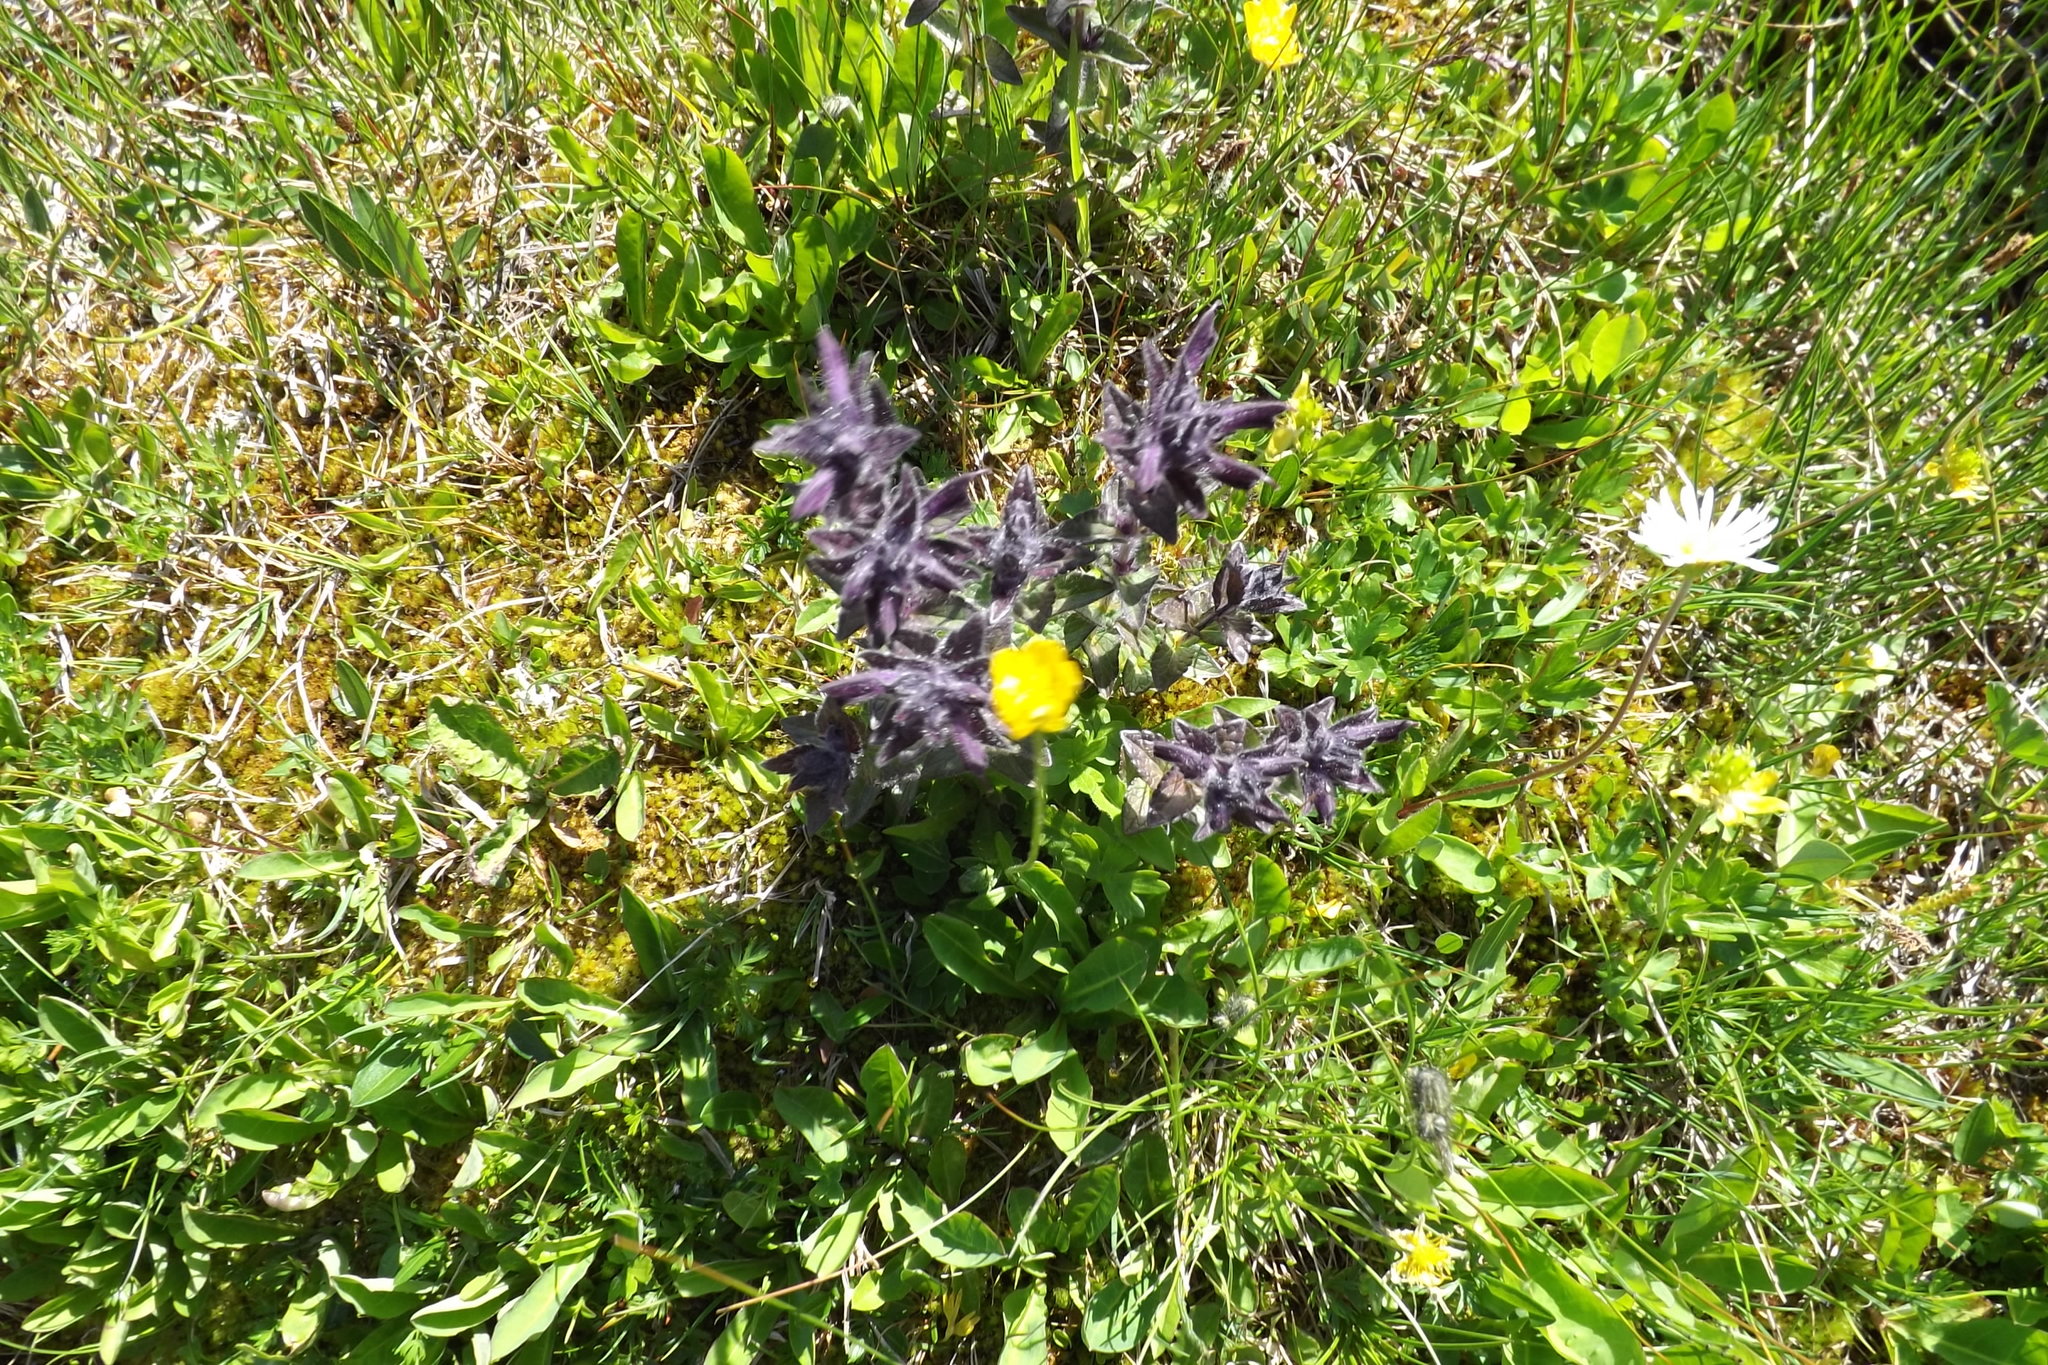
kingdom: Plantae
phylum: Tracheophyta
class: Magnoliopsida
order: Lamiales
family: Orobanchaceae
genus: Bartsia
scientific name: Bartsia alpina
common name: Alpine bartsia
